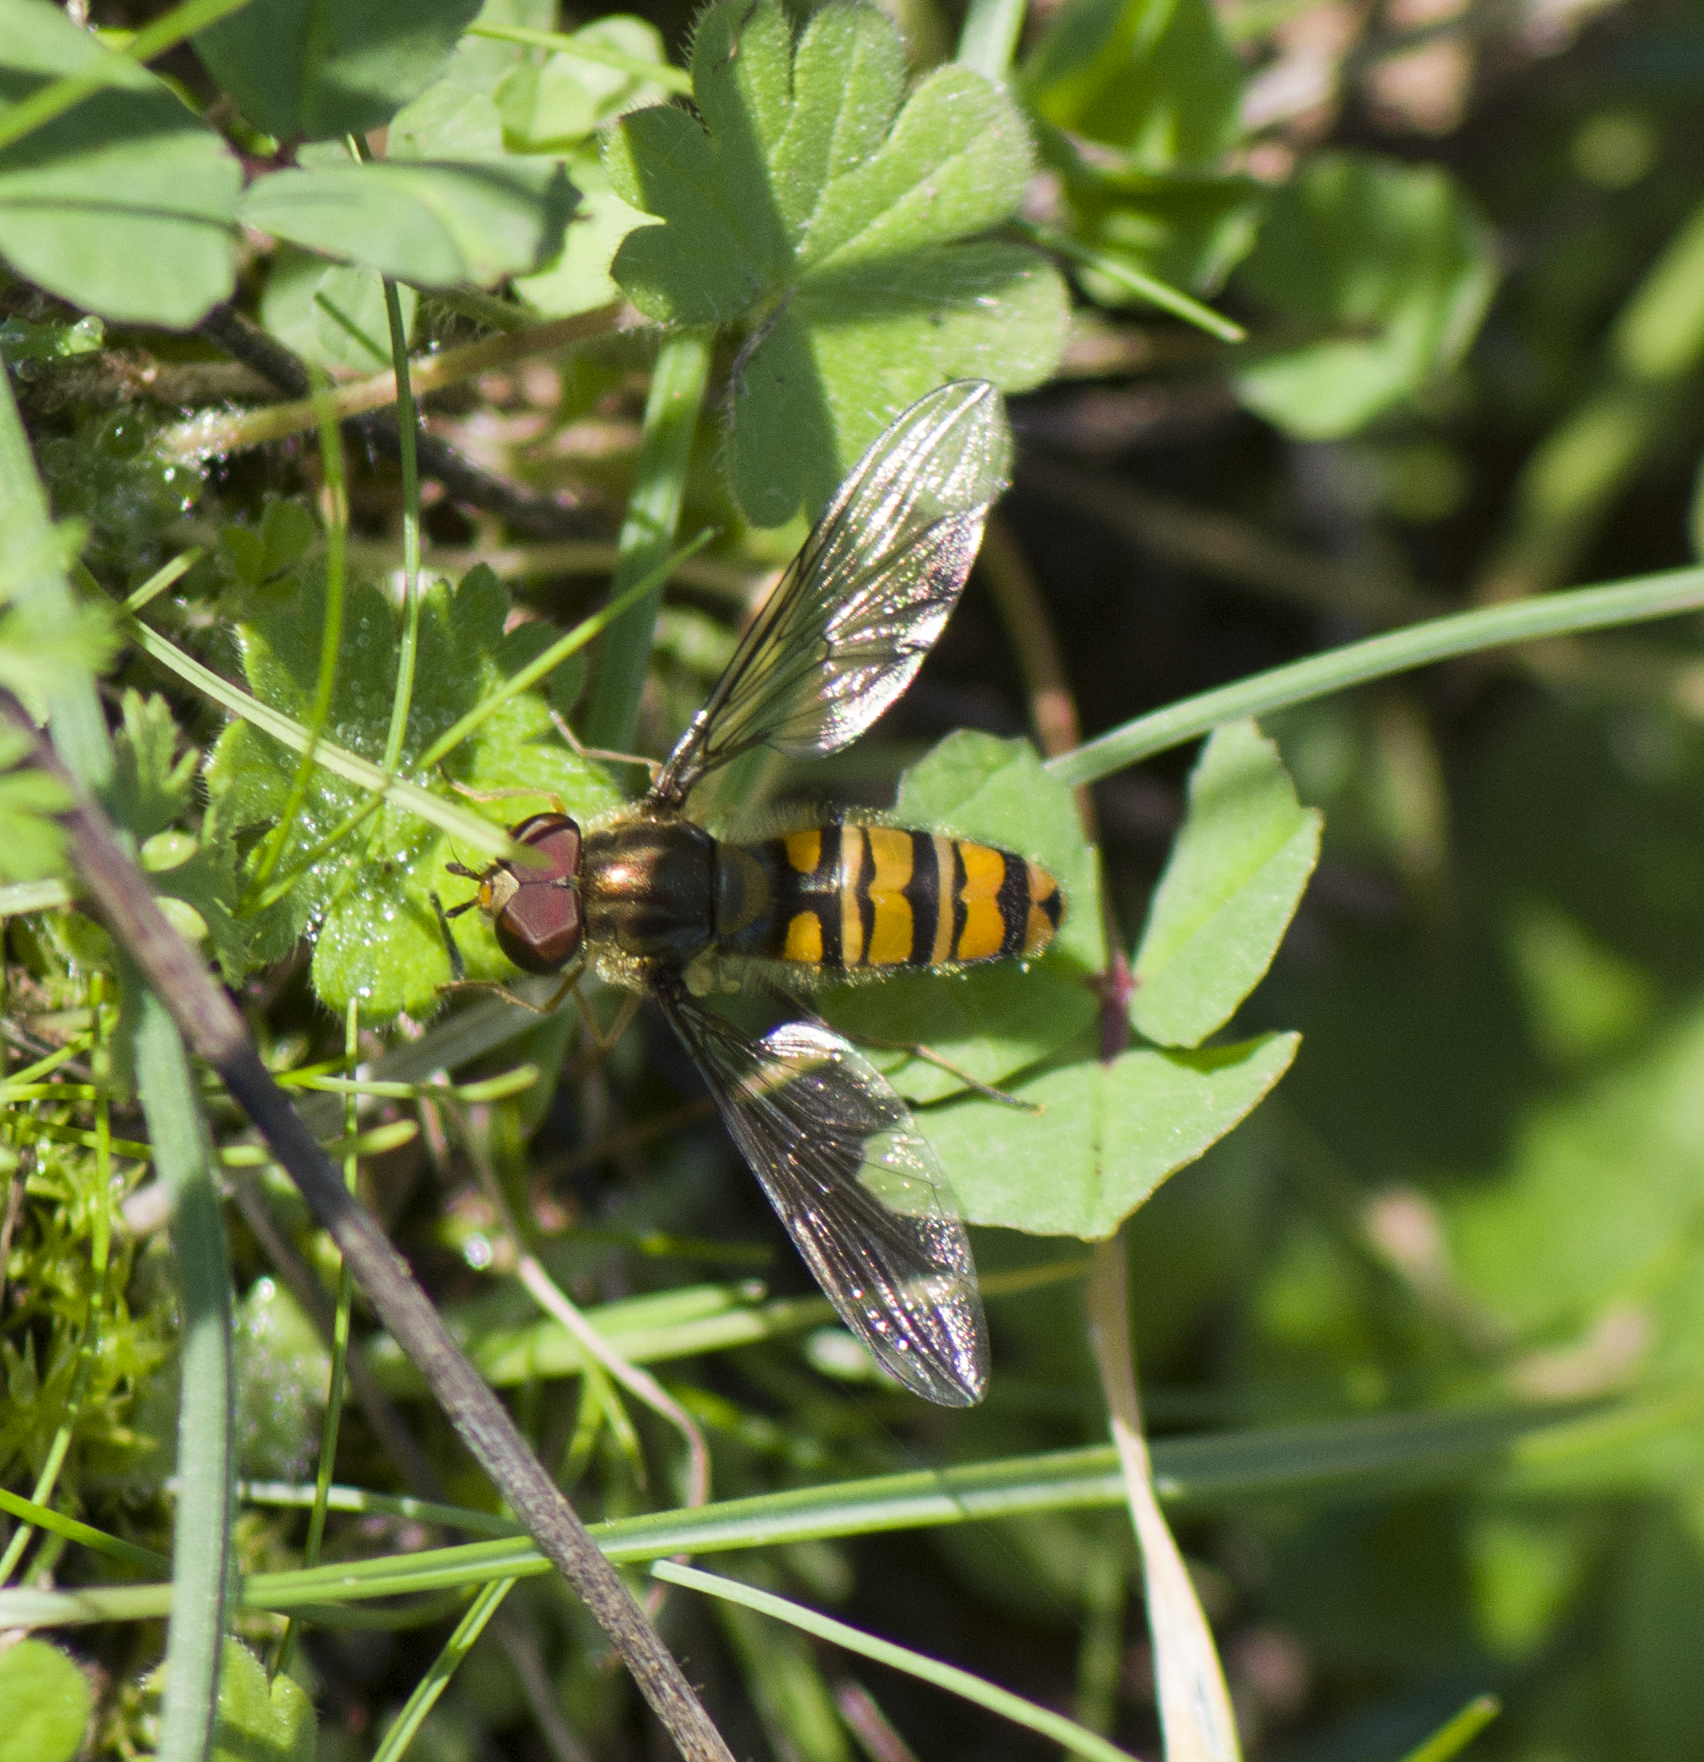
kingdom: Animalia
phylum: Arthropoda
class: Insecta
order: Diptera
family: Syrphidae
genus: Episyrphus
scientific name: Episyrphus balteatus
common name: Marmalade hoverfly
